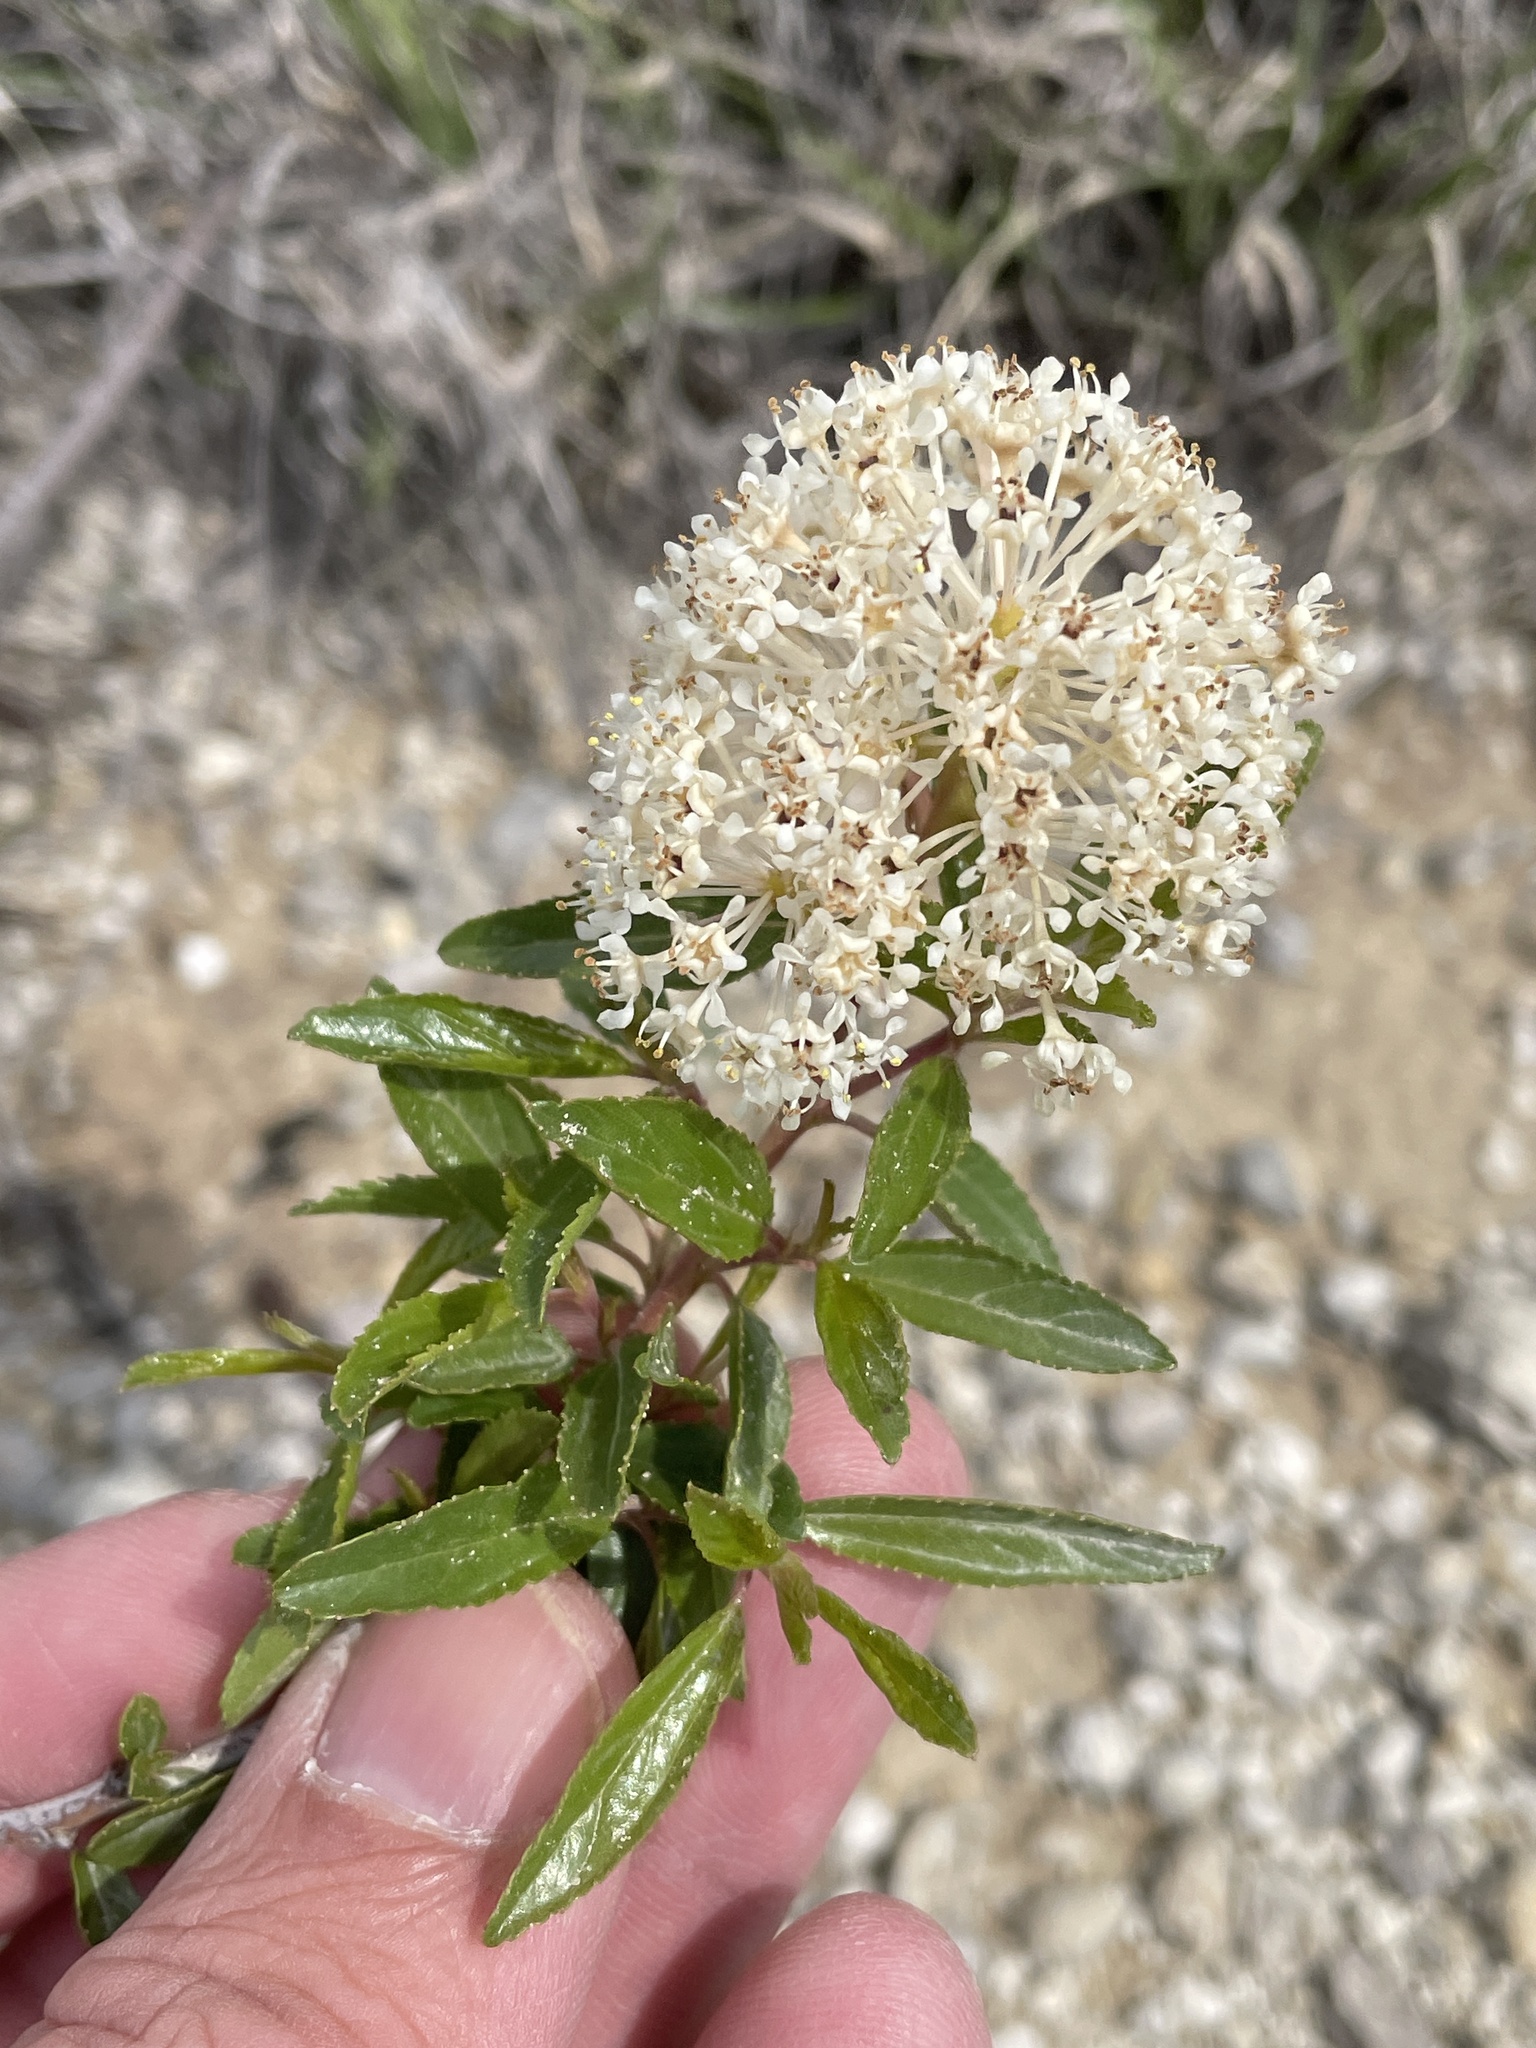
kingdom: Plantae
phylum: Tracheophyta
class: Magnoliopsida
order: Rosales
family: Rhamnaceae
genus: Ceanothus
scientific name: Ceanothus herbaceus
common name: Inland ceanothus
